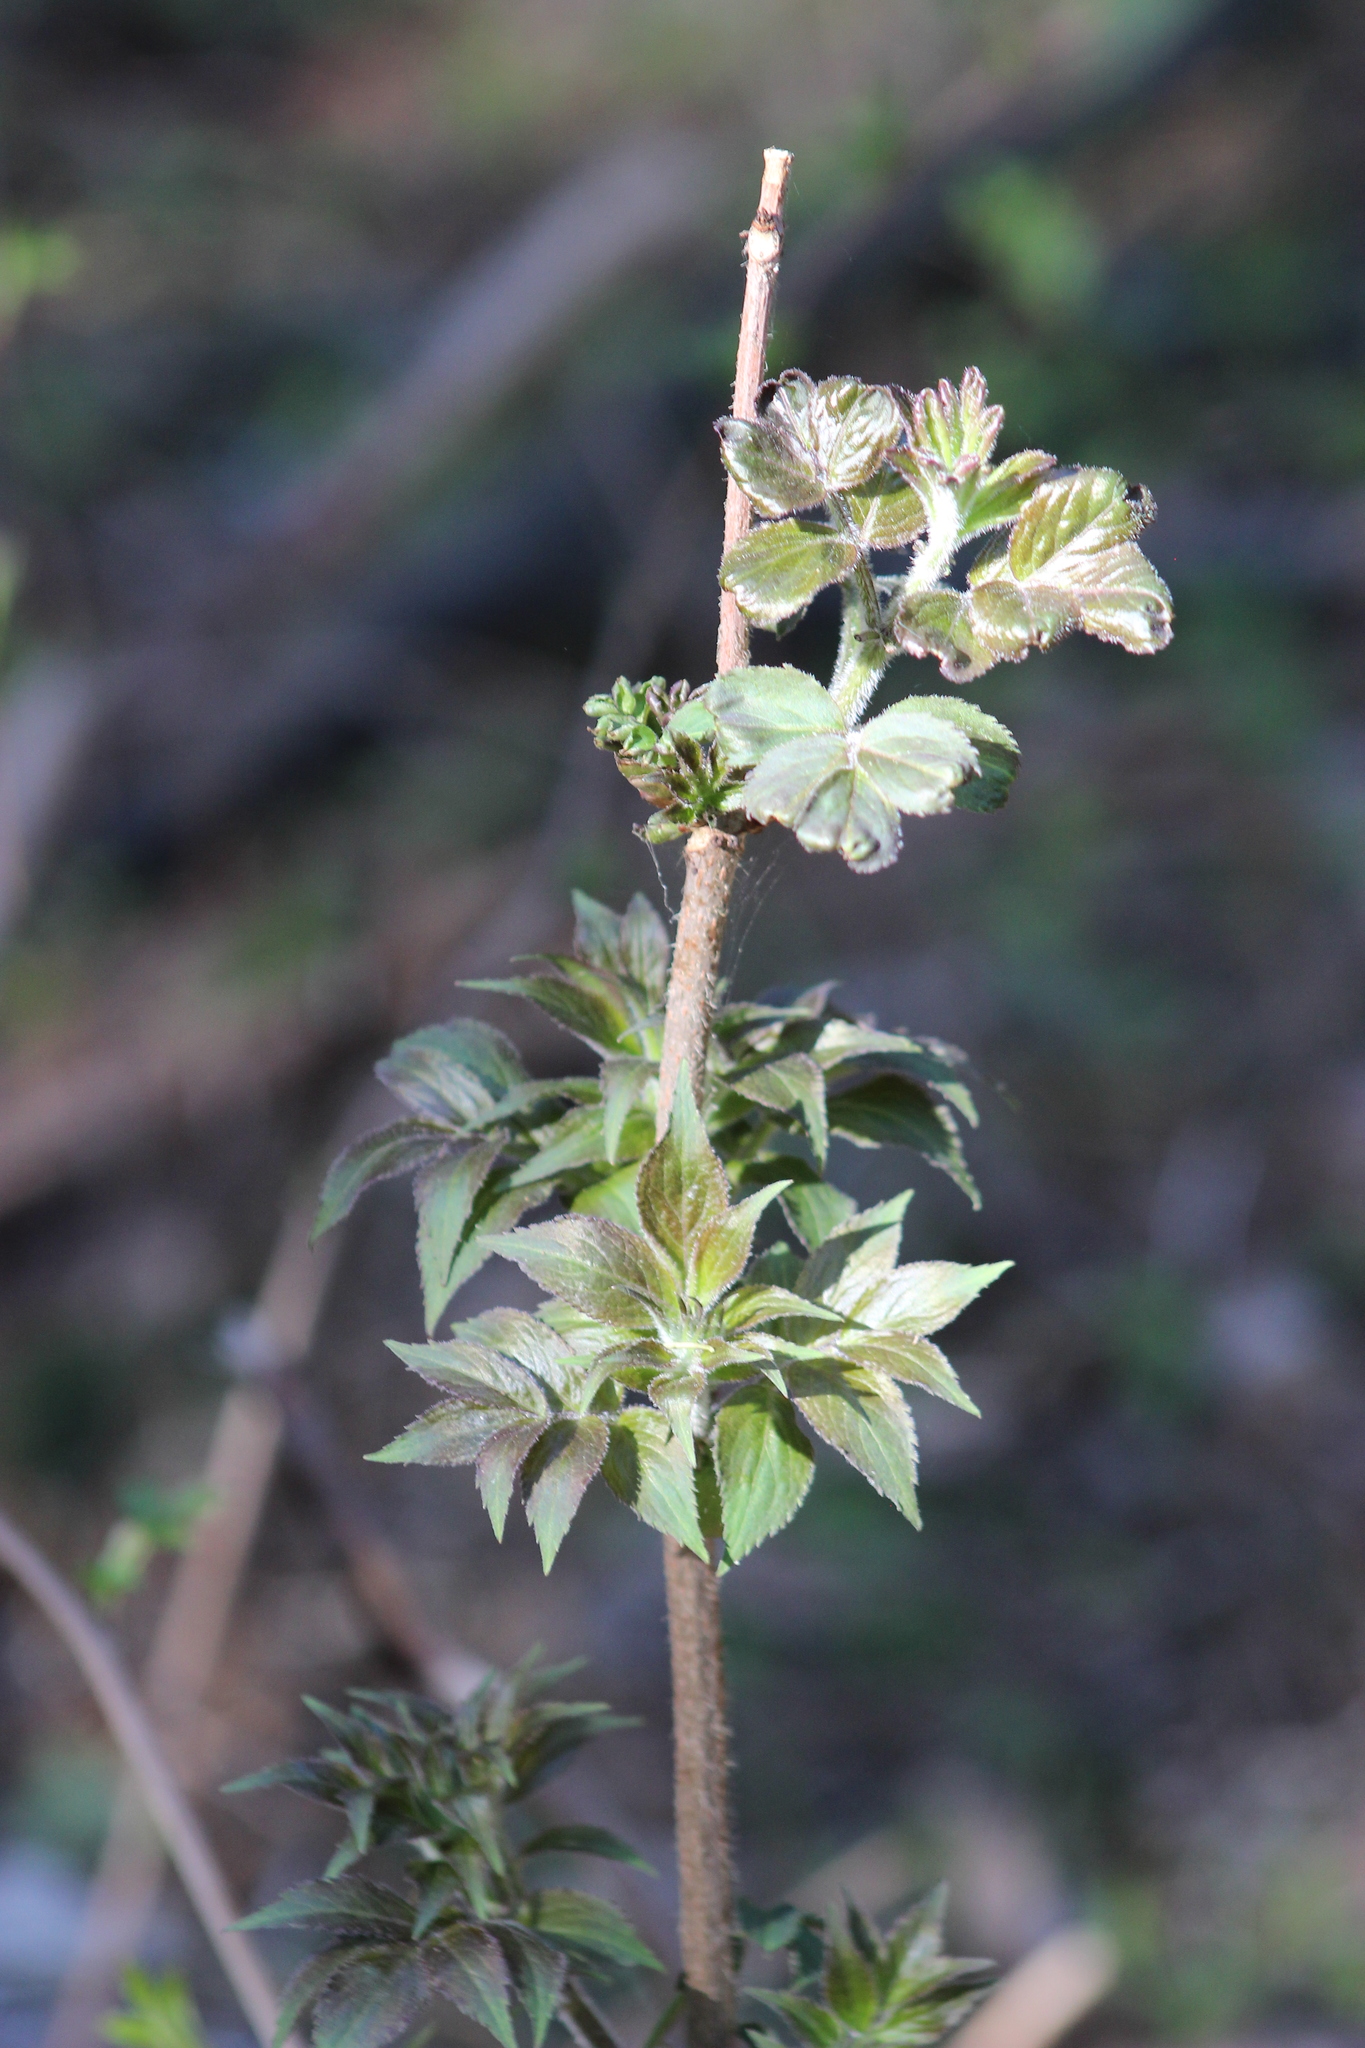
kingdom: Plantae
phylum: Tracheophyta
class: Magnoliopsida
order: Dipsacales
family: Viburnaceae
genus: Sambucus
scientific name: Sambucus sibirica
